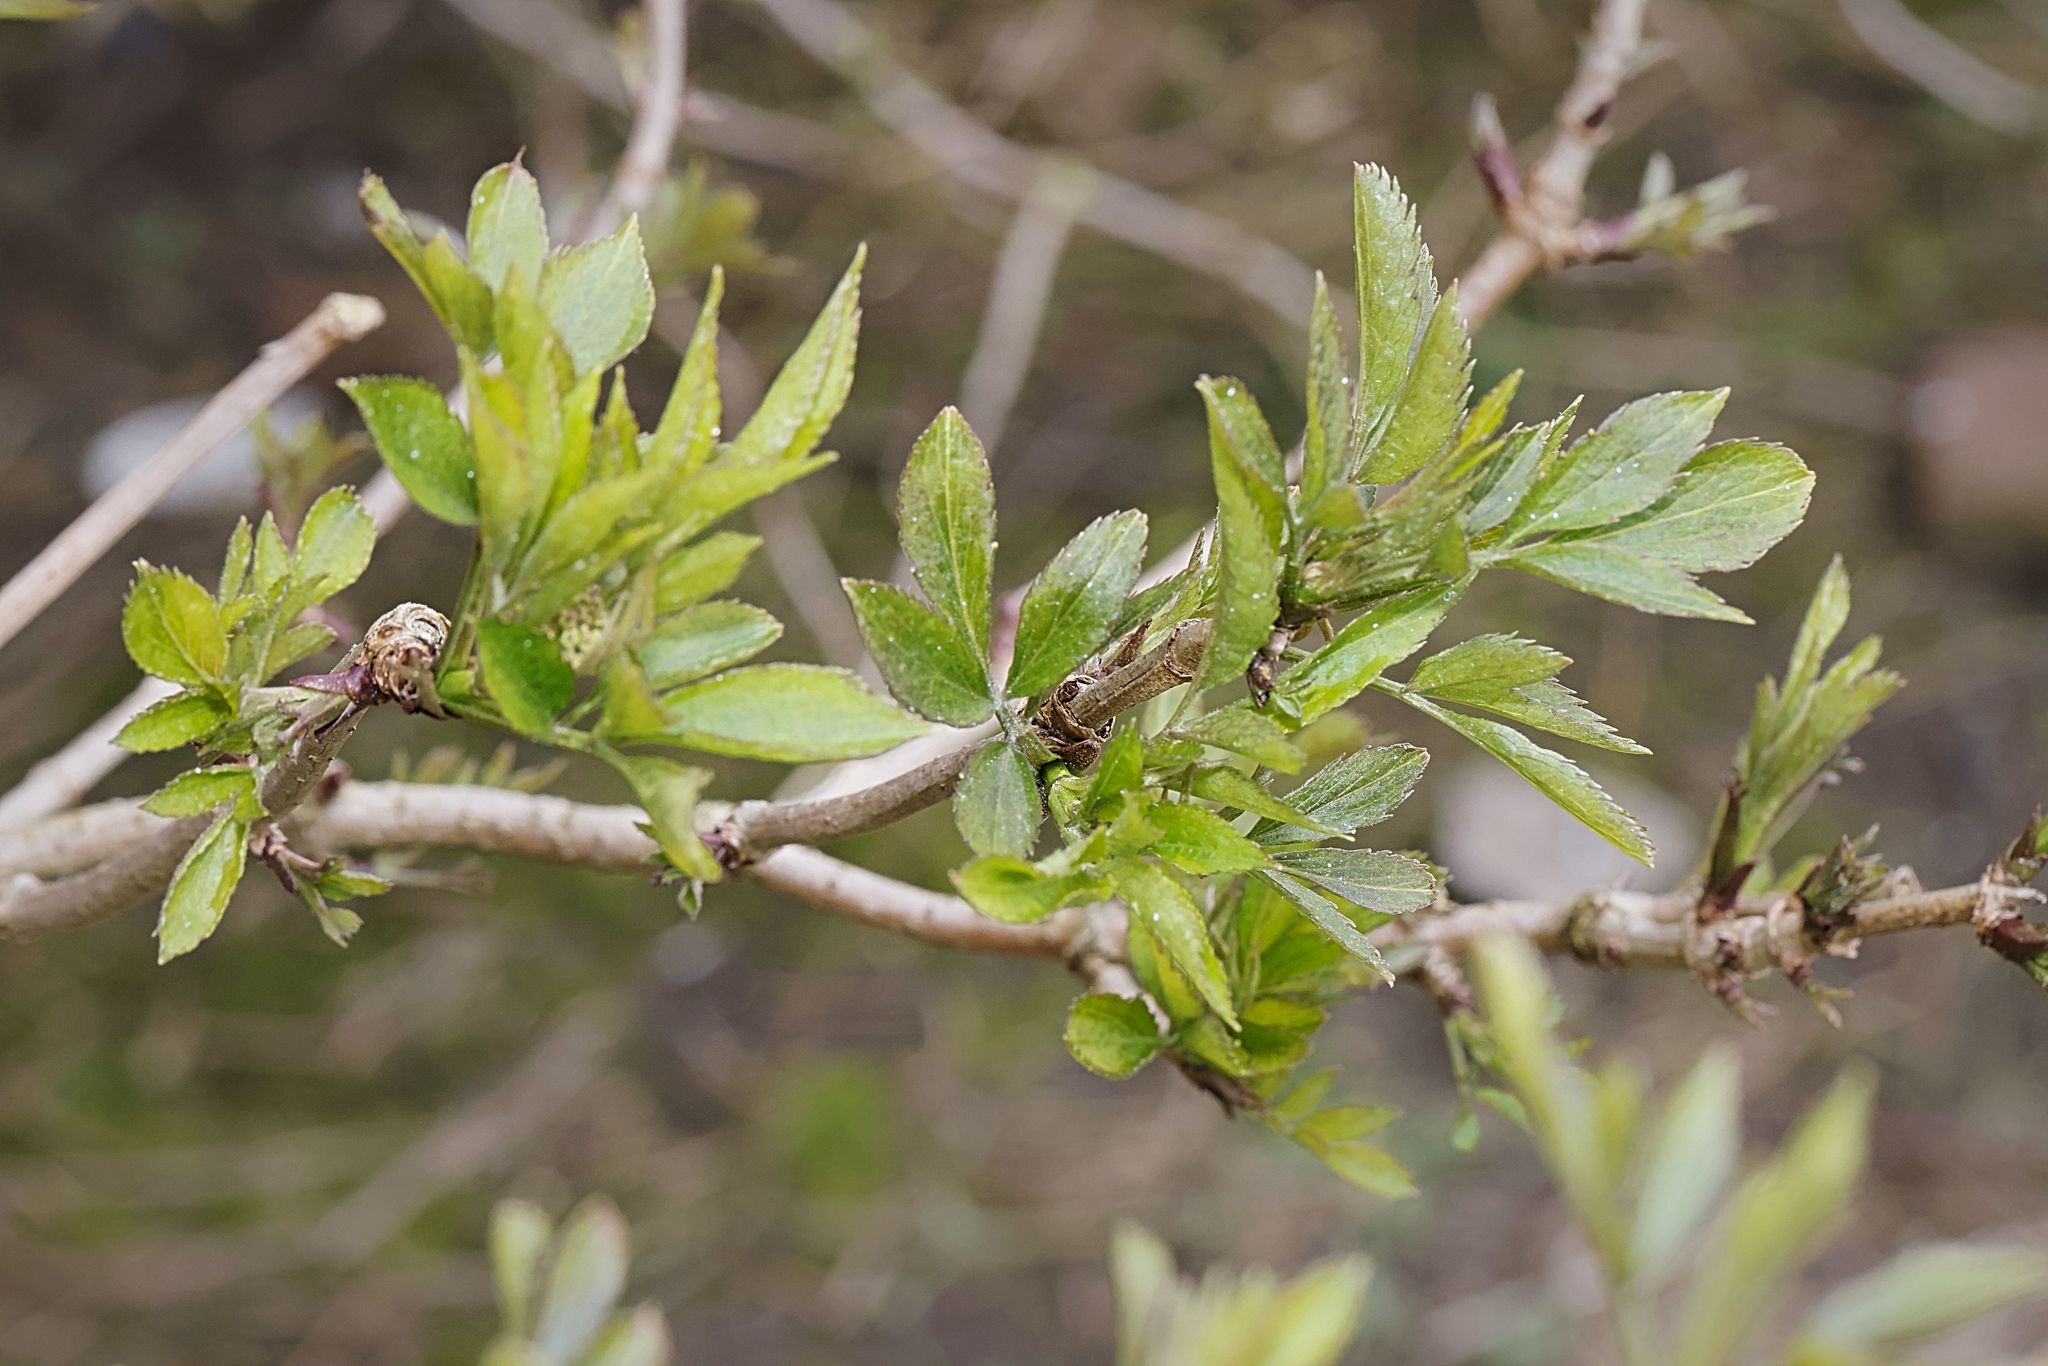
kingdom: Plantae
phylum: Tracheophyta
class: Magnoliopsida
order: Dipsacales
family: Viburnaceae
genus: Sambucus
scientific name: Sambucus nigra
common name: Elder
